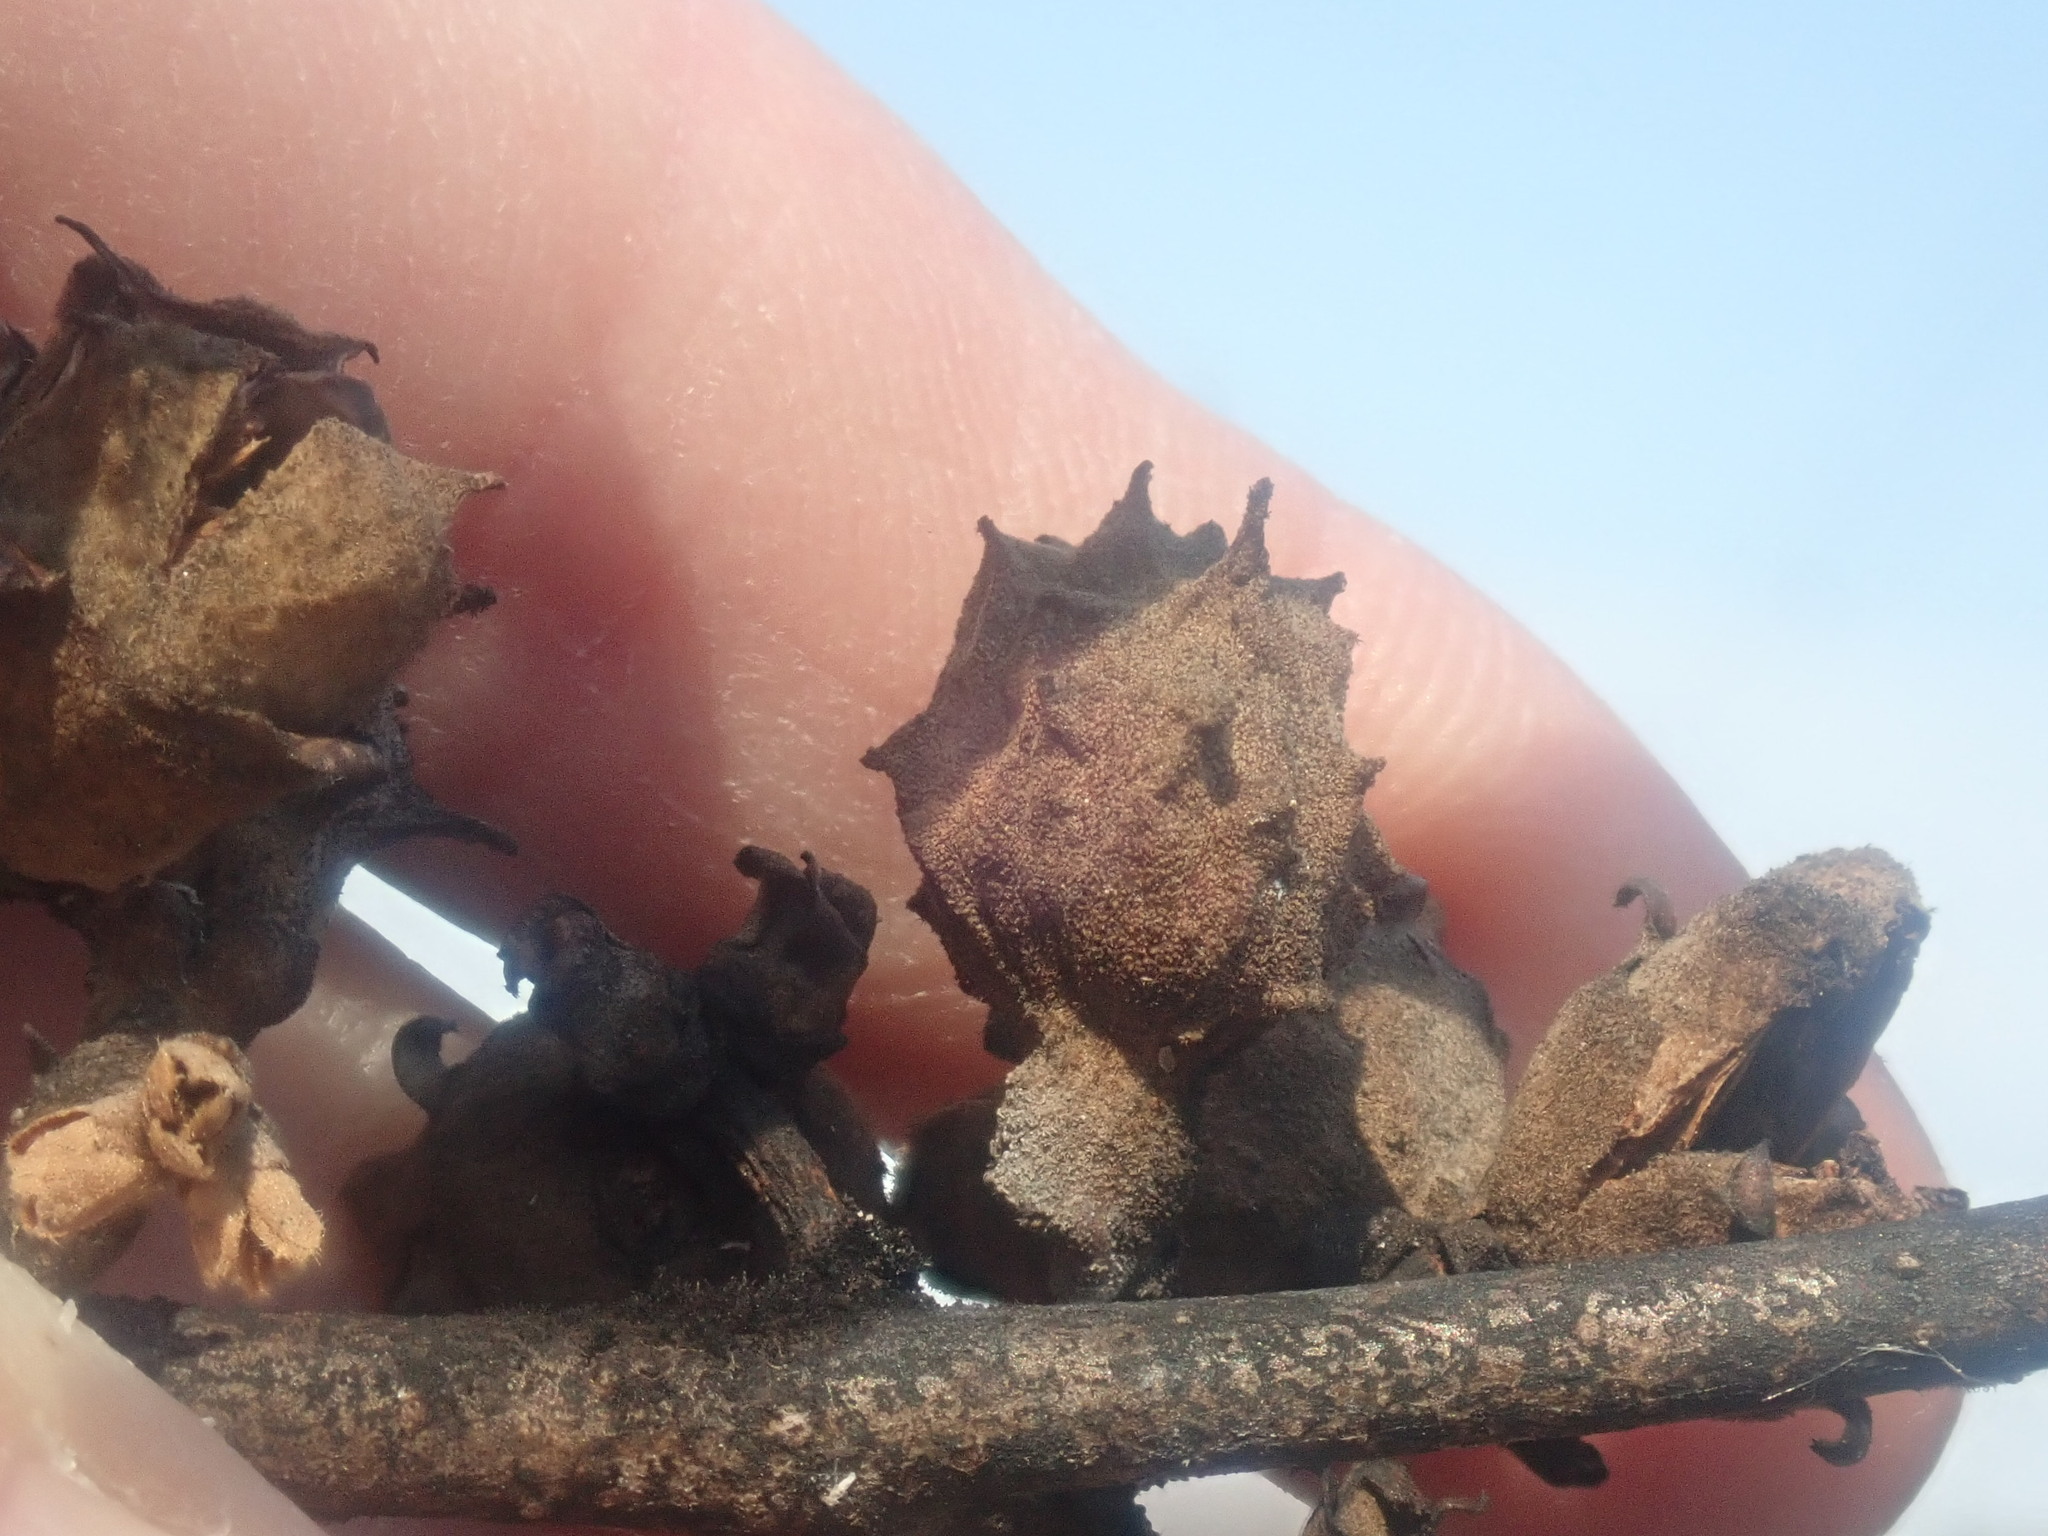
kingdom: Animalia
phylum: Arthropoda
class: Insecta
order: Hemiptera
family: Aphididae
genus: Hamamelistes
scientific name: Hamamelistes spinosus
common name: Witch hazel gall aphid
